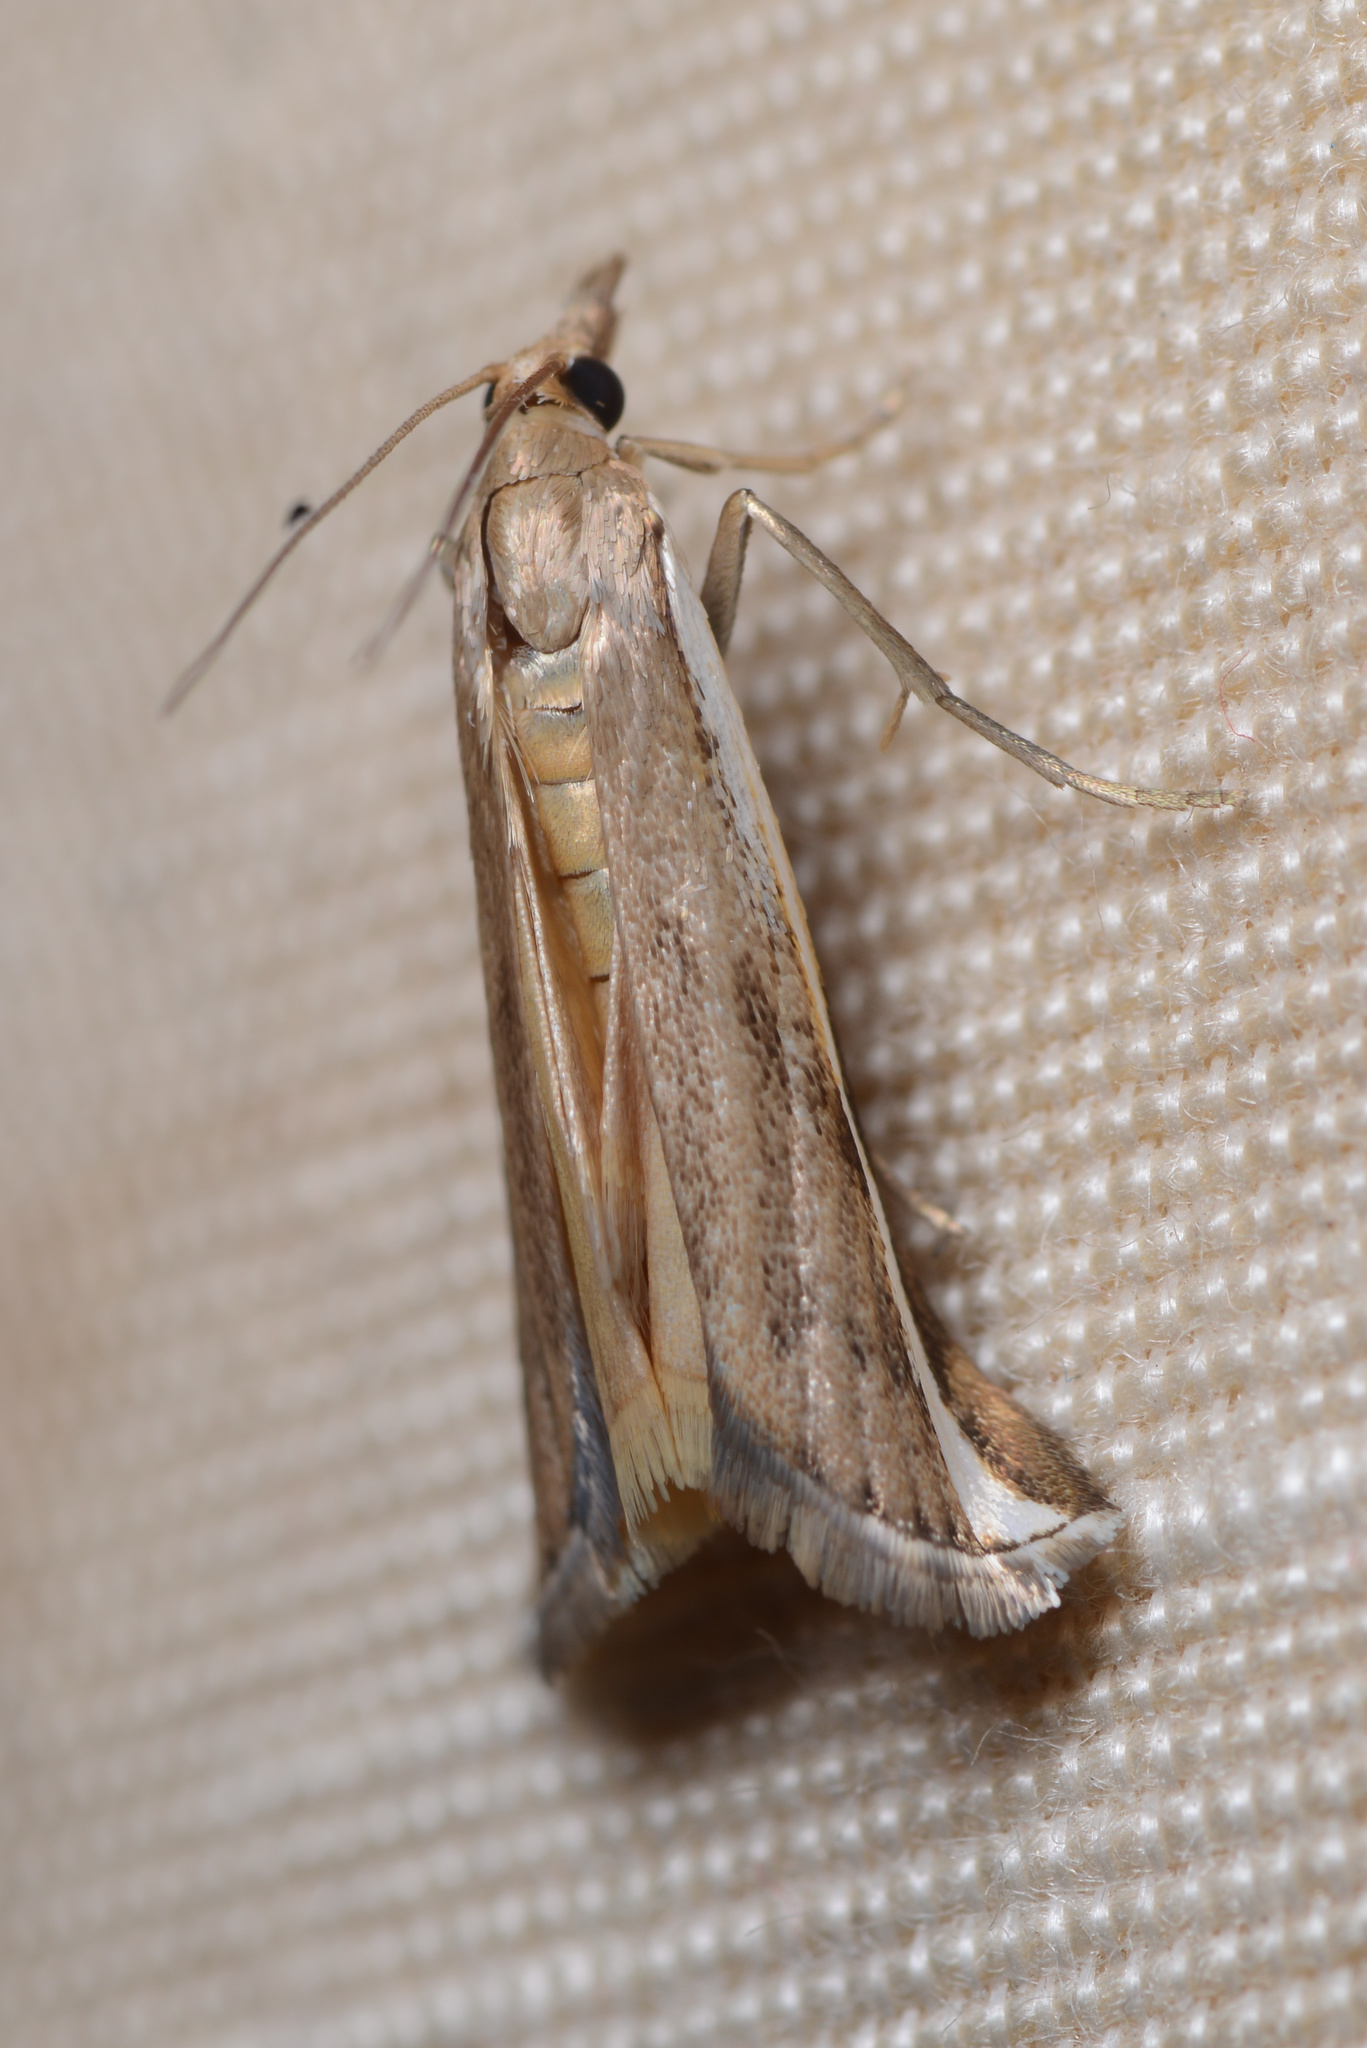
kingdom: Animalia
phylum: Arthropoda
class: Insecta
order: Lepidoptera
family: Crambidae
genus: Orocrambus
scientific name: Orocrambus flexuosellus
